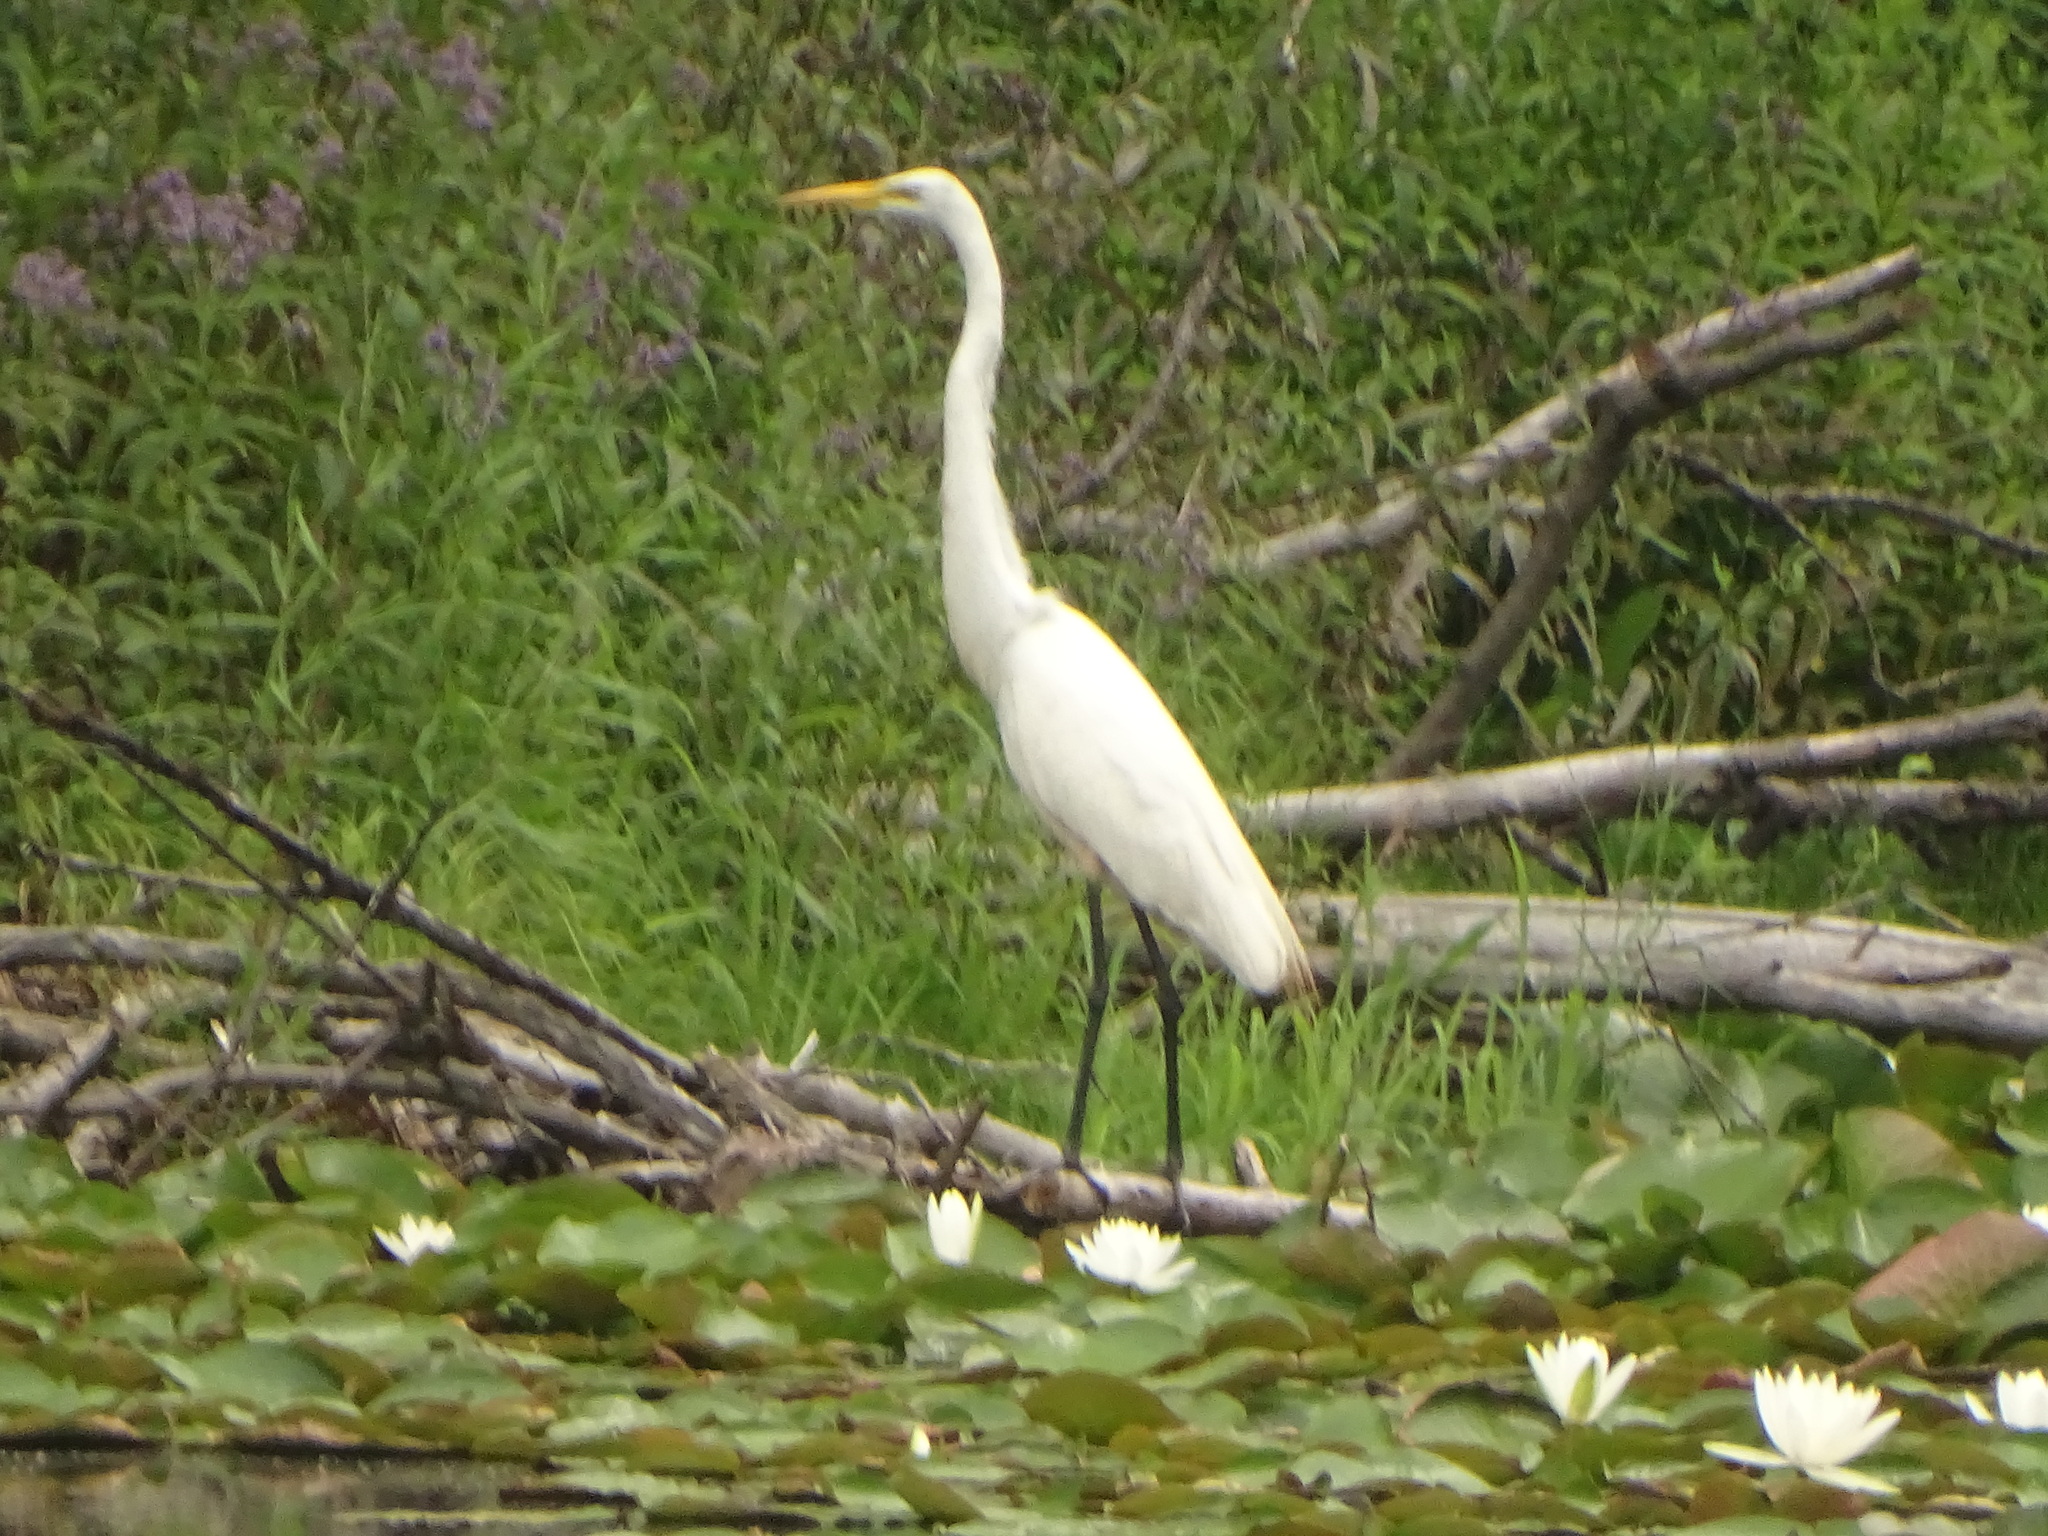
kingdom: Animalia
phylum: Chordata
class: Aves
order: Pelecaniformes
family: Ardeidae
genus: Ardea
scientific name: Ardea alba
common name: Great egret
